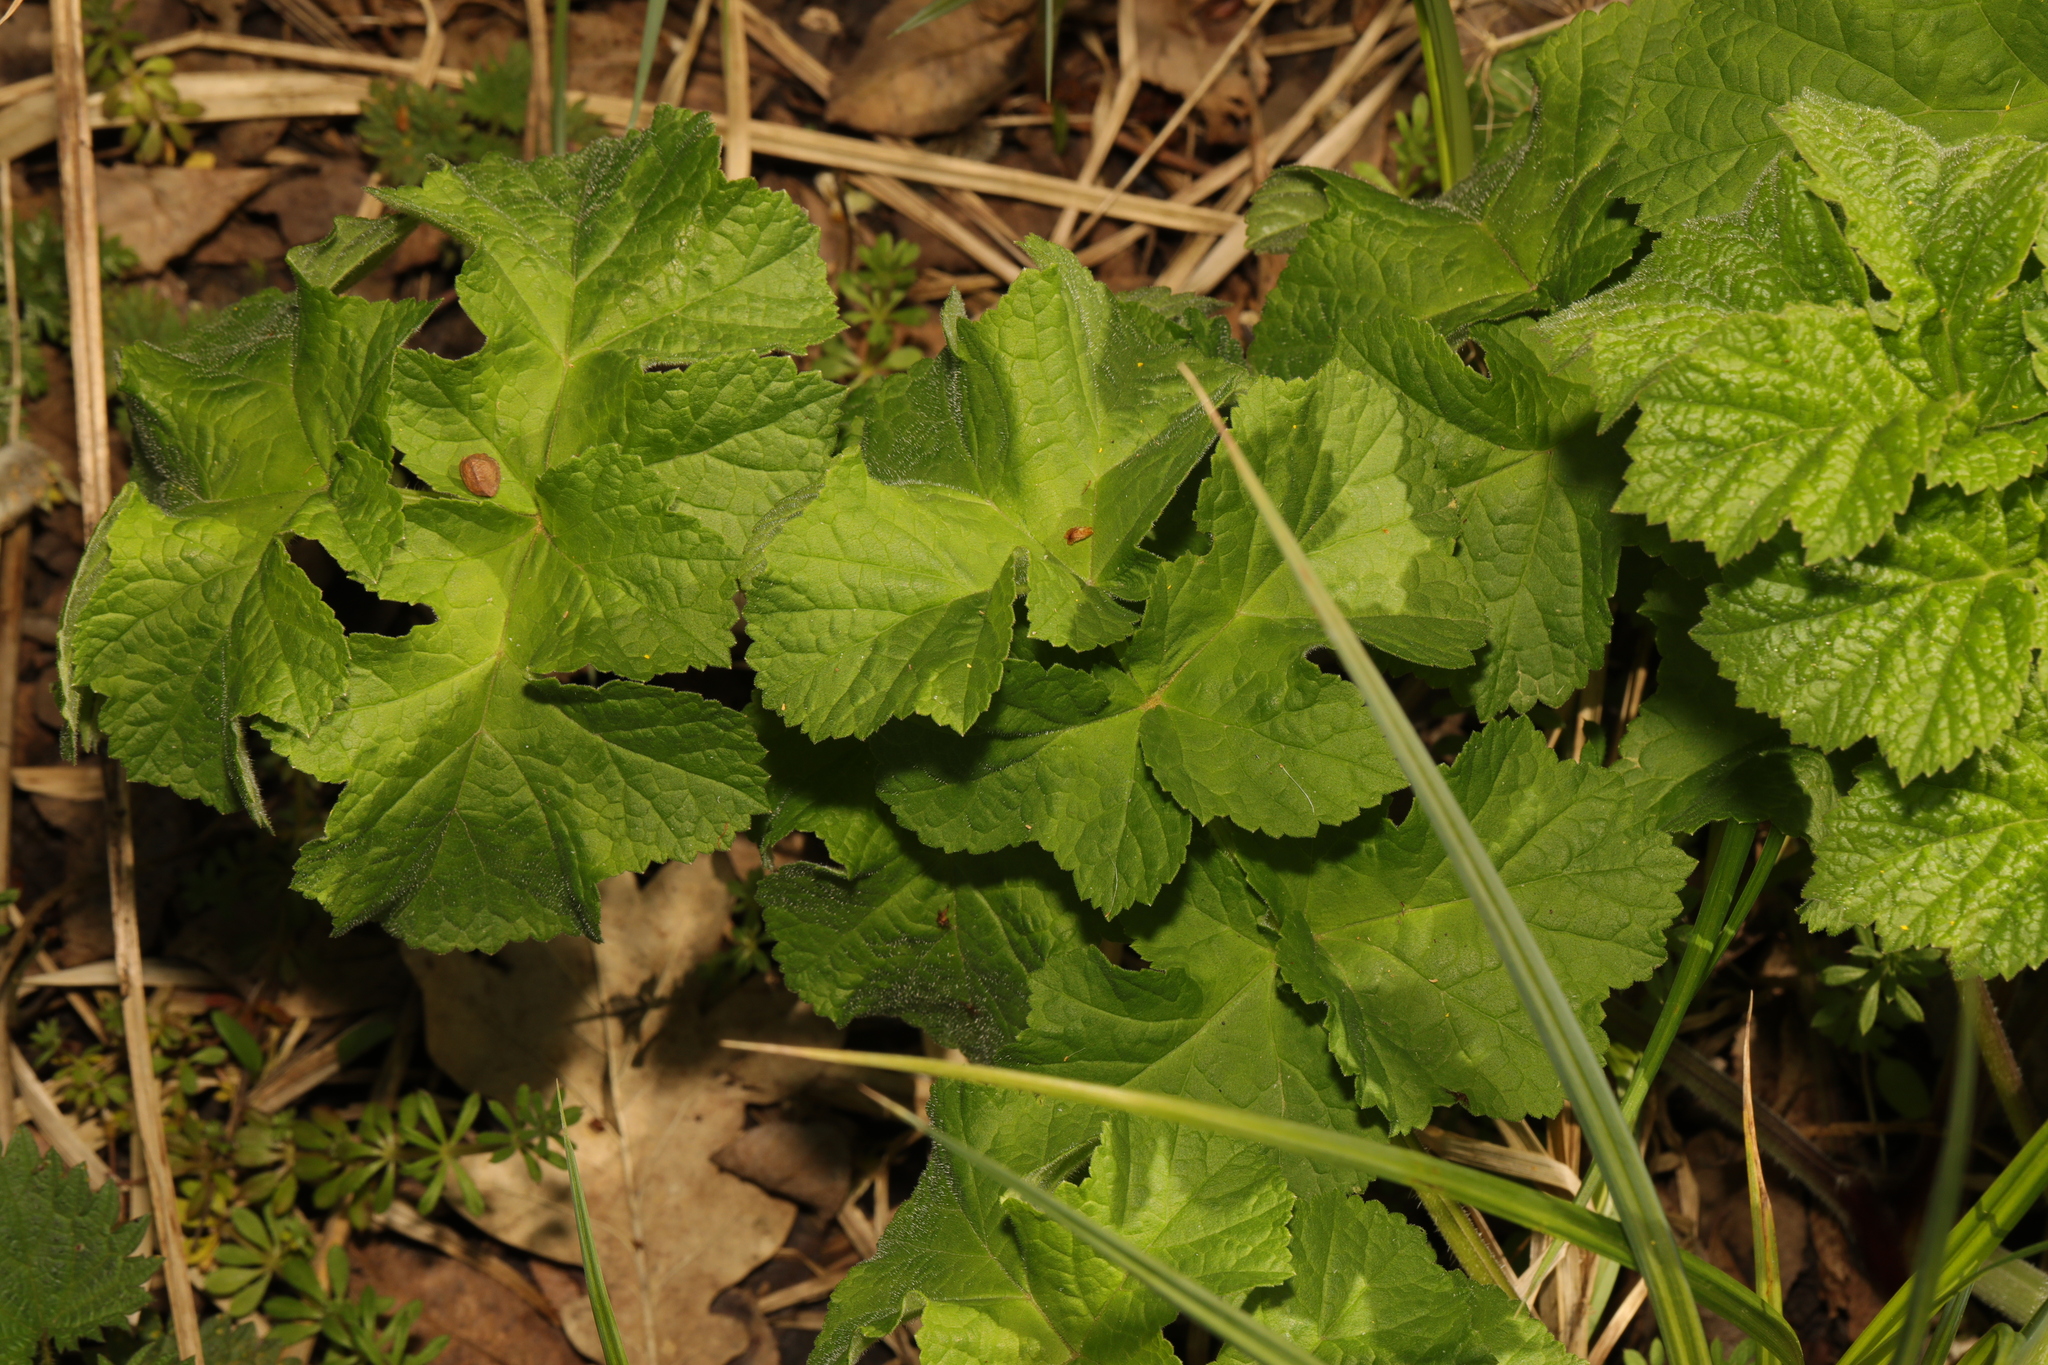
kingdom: Plantae
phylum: Tracheophyta
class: Magnoliopsida
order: Apiales
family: Apiaceae
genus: Heracleum
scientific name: Heracleum sphondylium
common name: Hogweed
